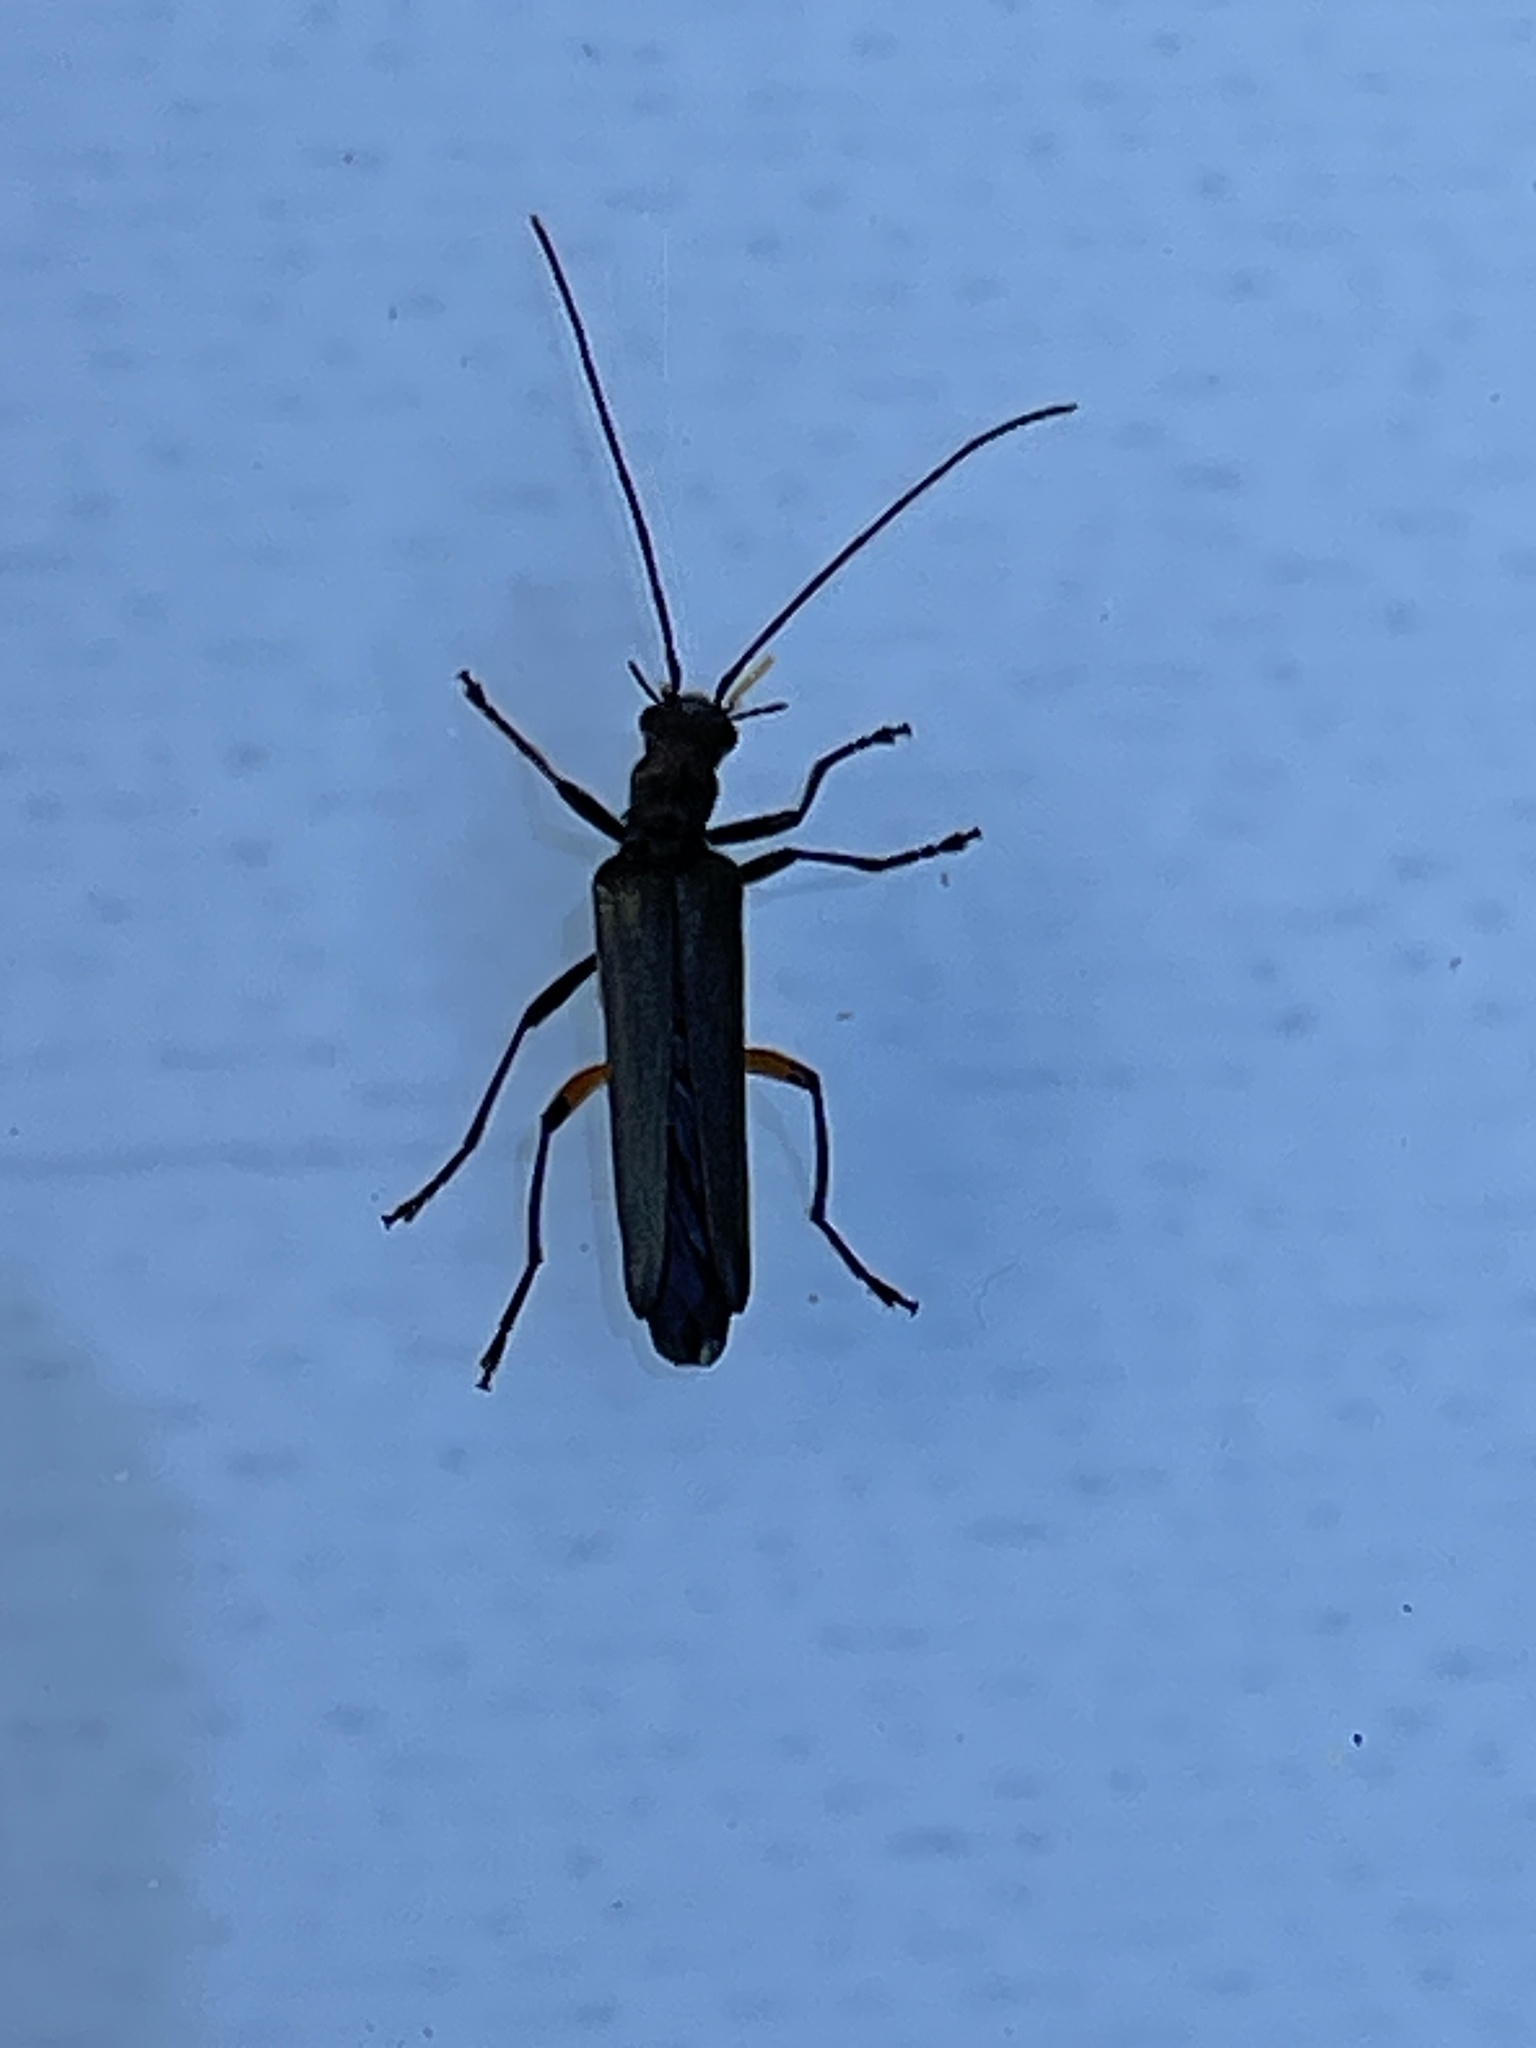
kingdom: Animalia
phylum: Arthropoda
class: Insecta
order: Coleoptera
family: Oedemeridae
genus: Oedemera
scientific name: Oedemera rufofemorata
